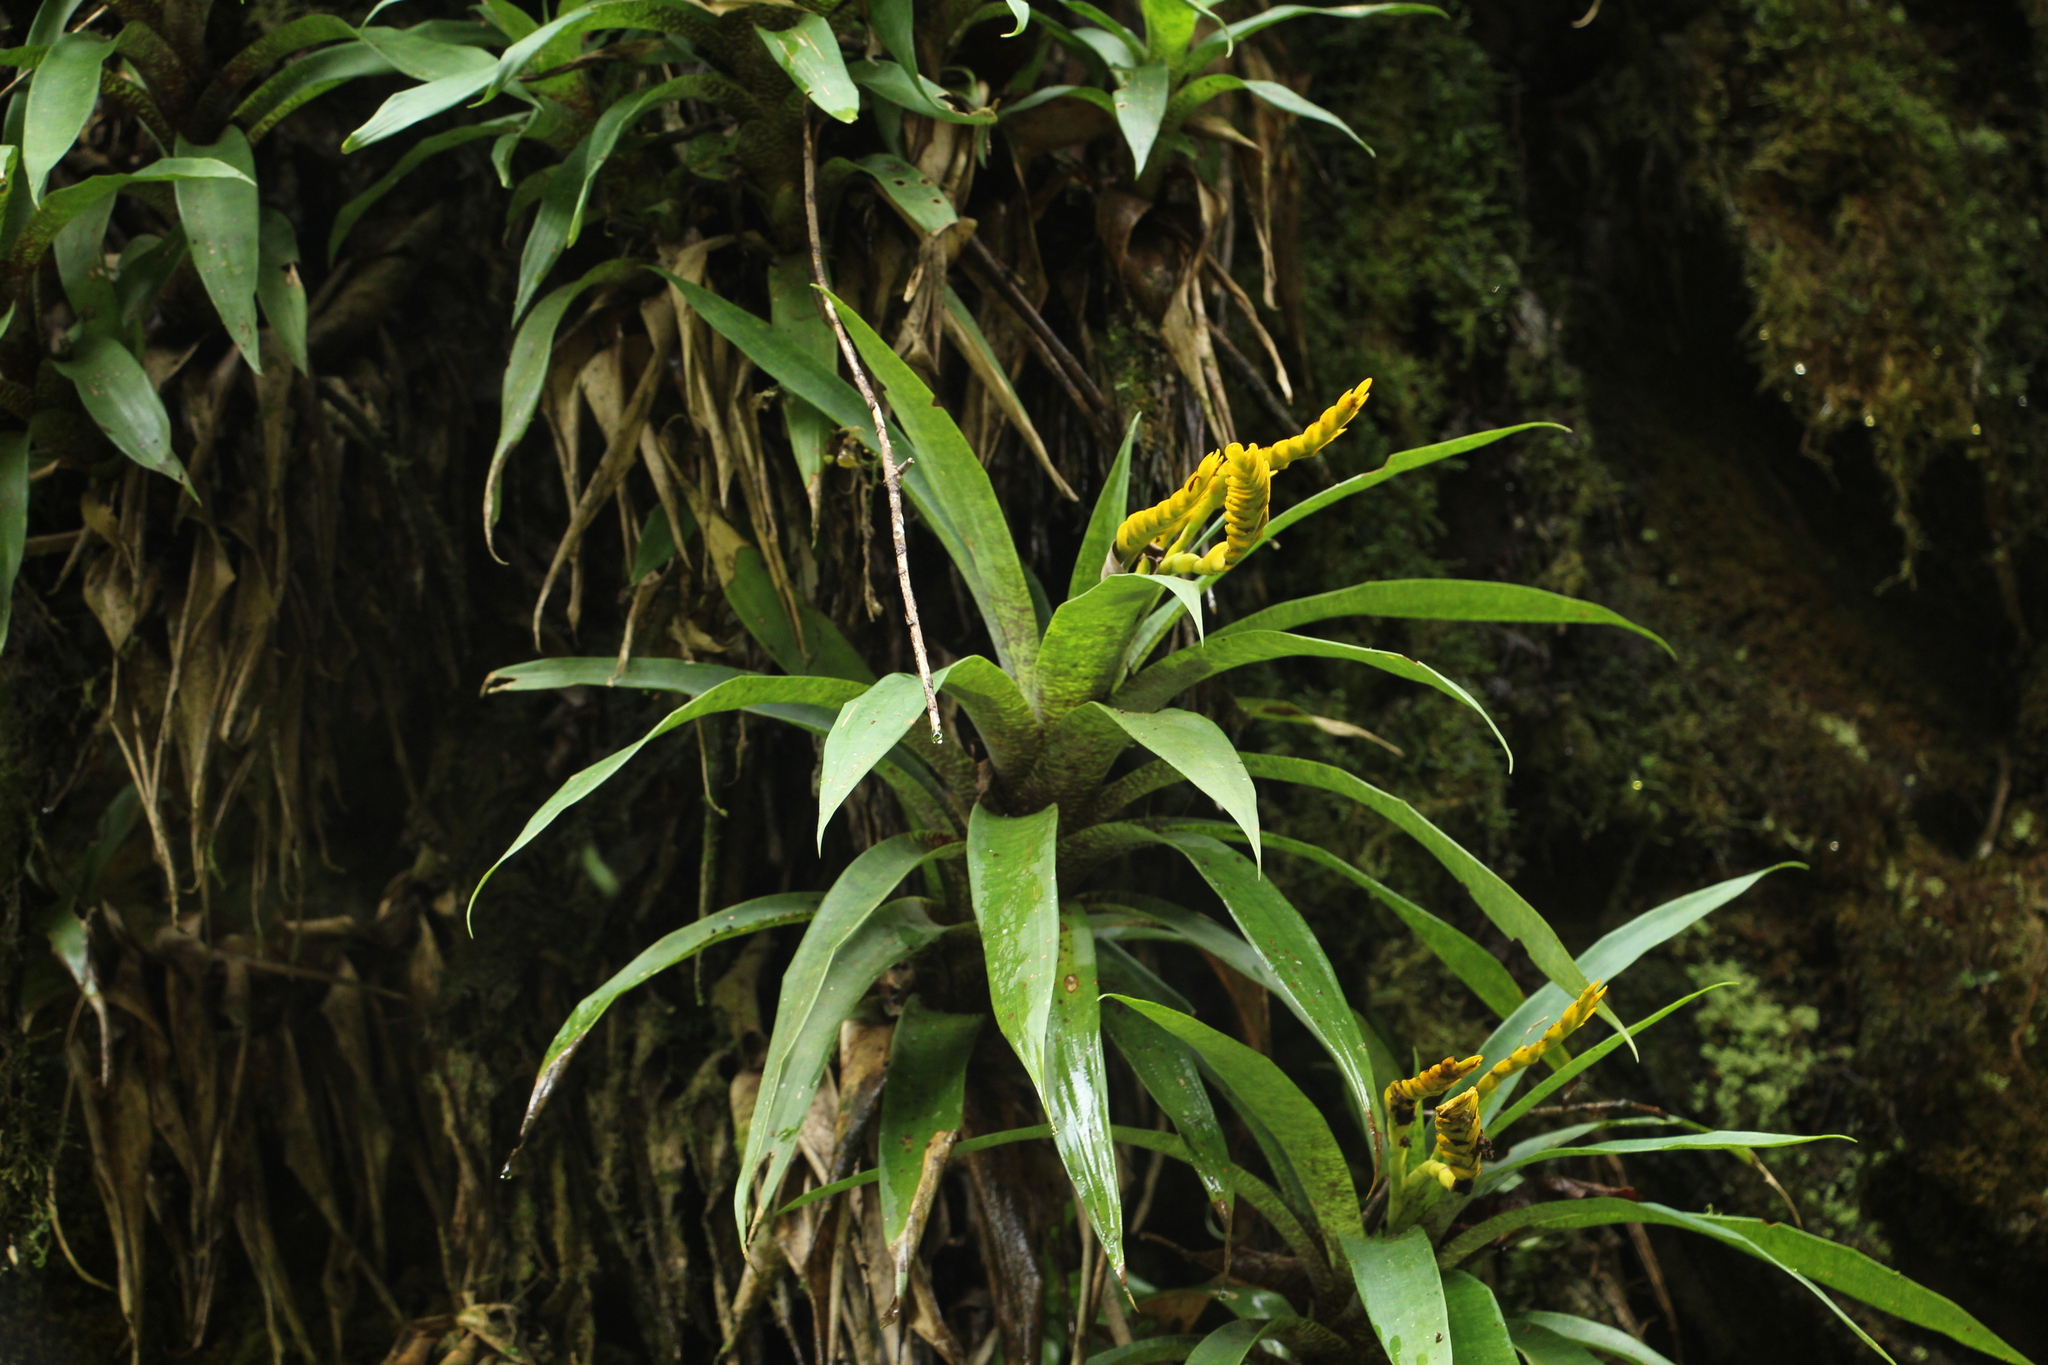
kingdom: Plantae
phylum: Tracheophyta
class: Liliopsida
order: Poales
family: Bromeliaceae
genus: Goudaea
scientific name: Goudaea ospinae
